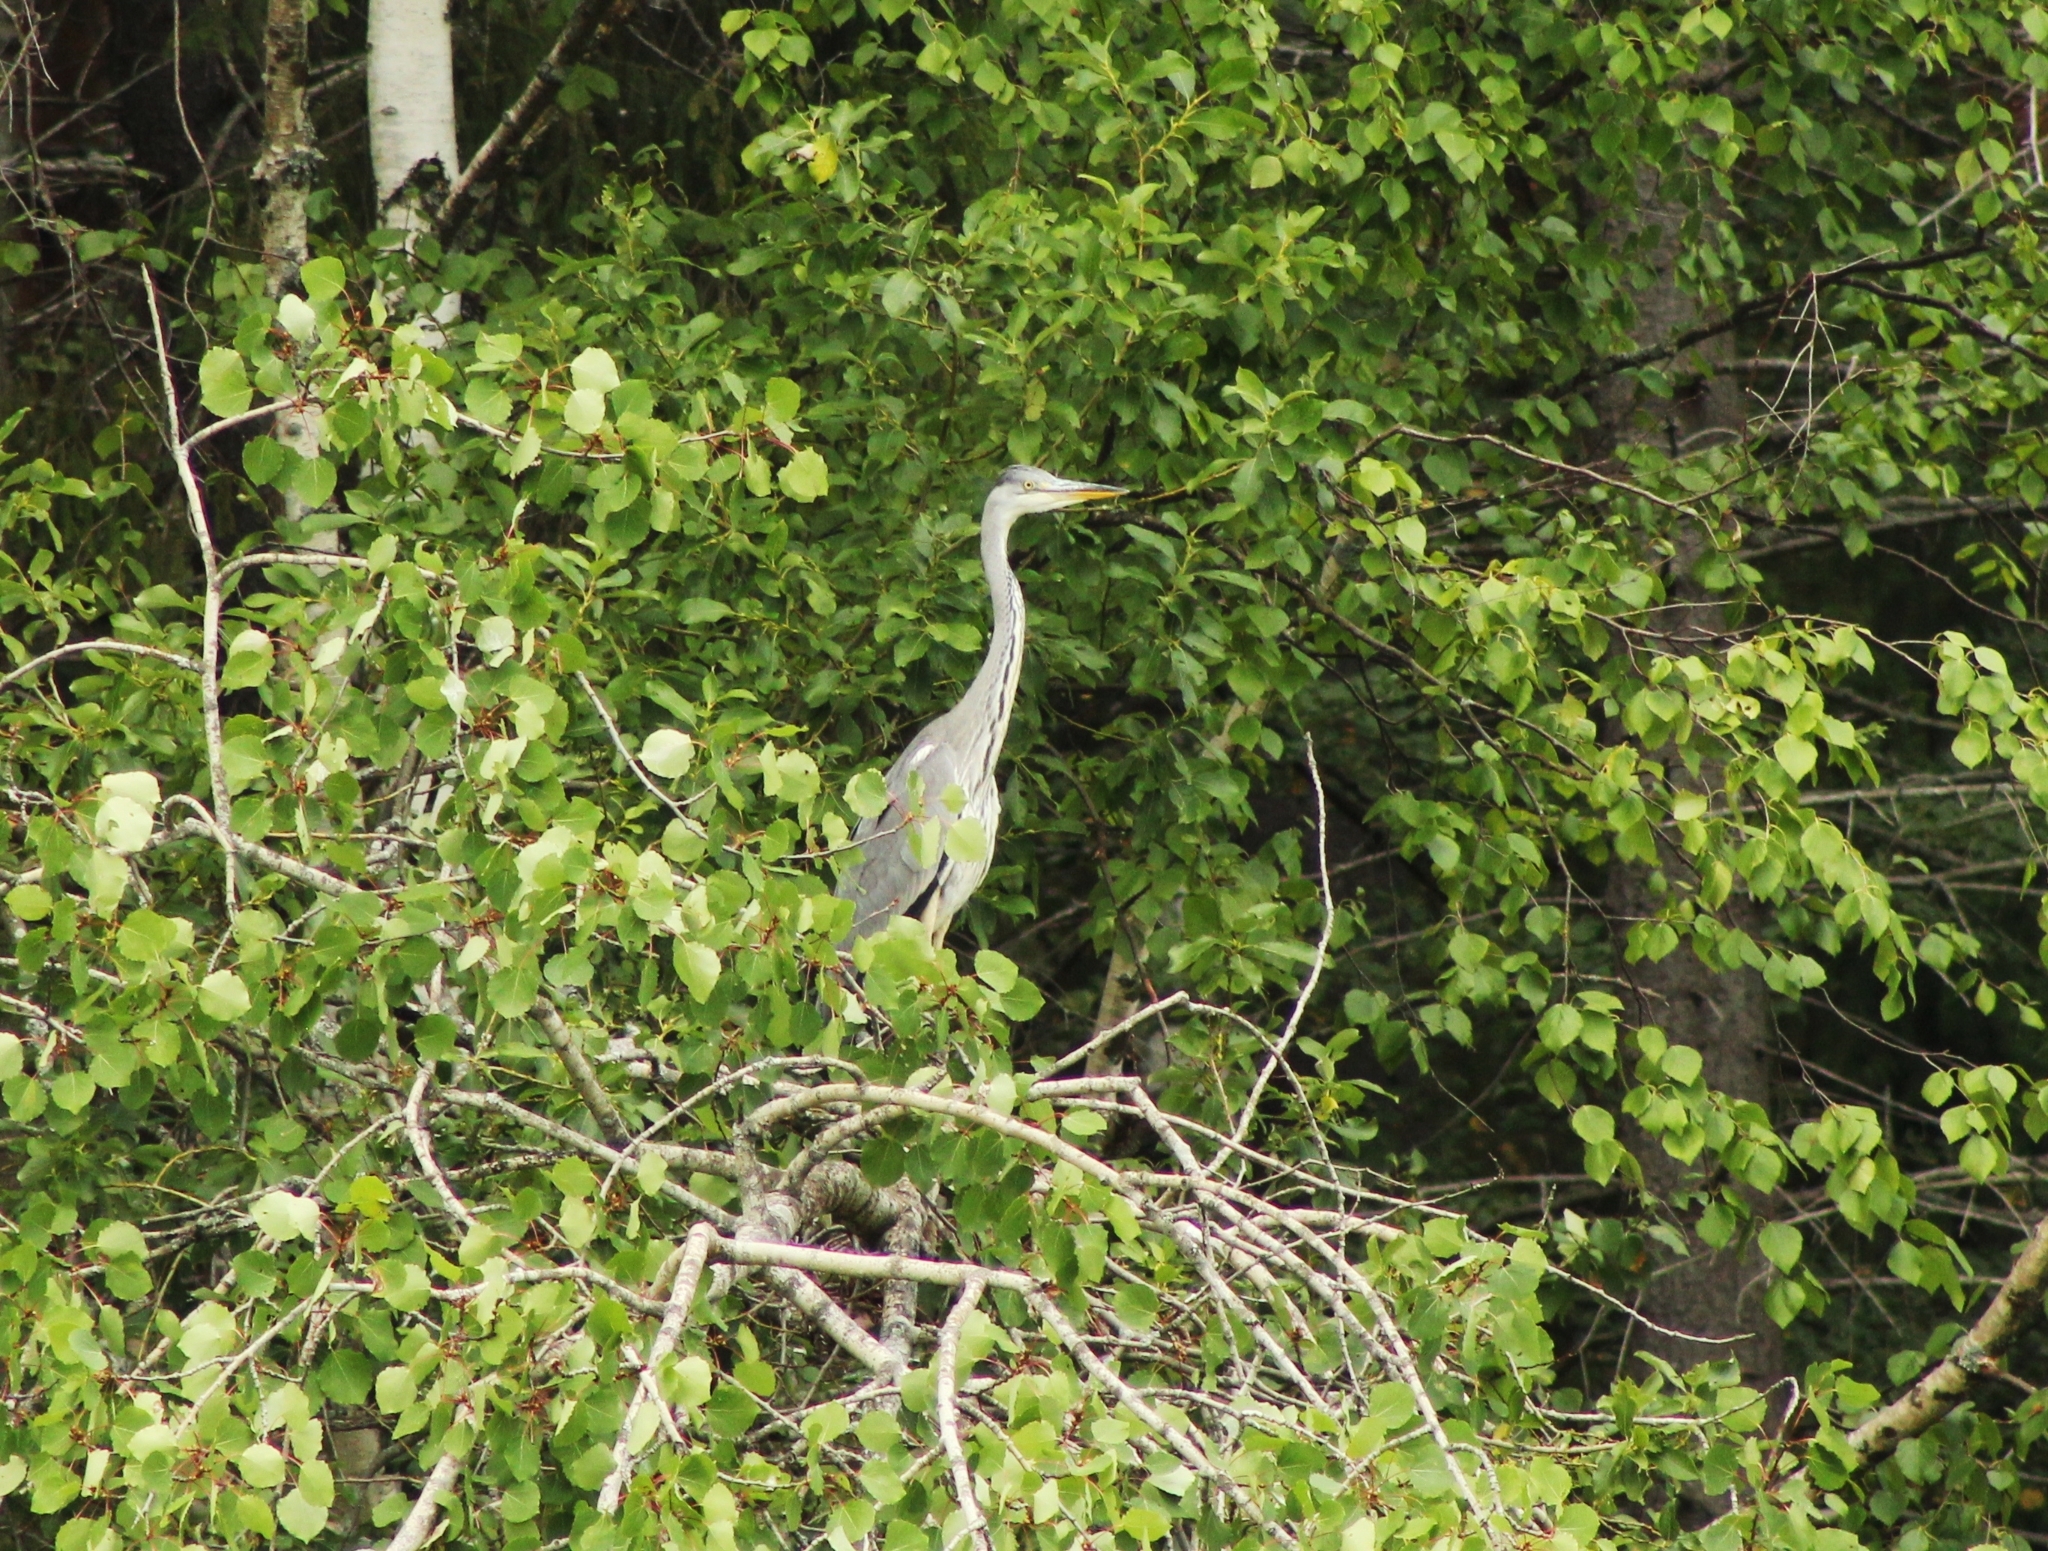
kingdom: Animalia
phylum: Chordata
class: Aves
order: Pelecaniformes
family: Ardeidae
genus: Ardea
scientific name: Ardea cinerea
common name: Grey heron
